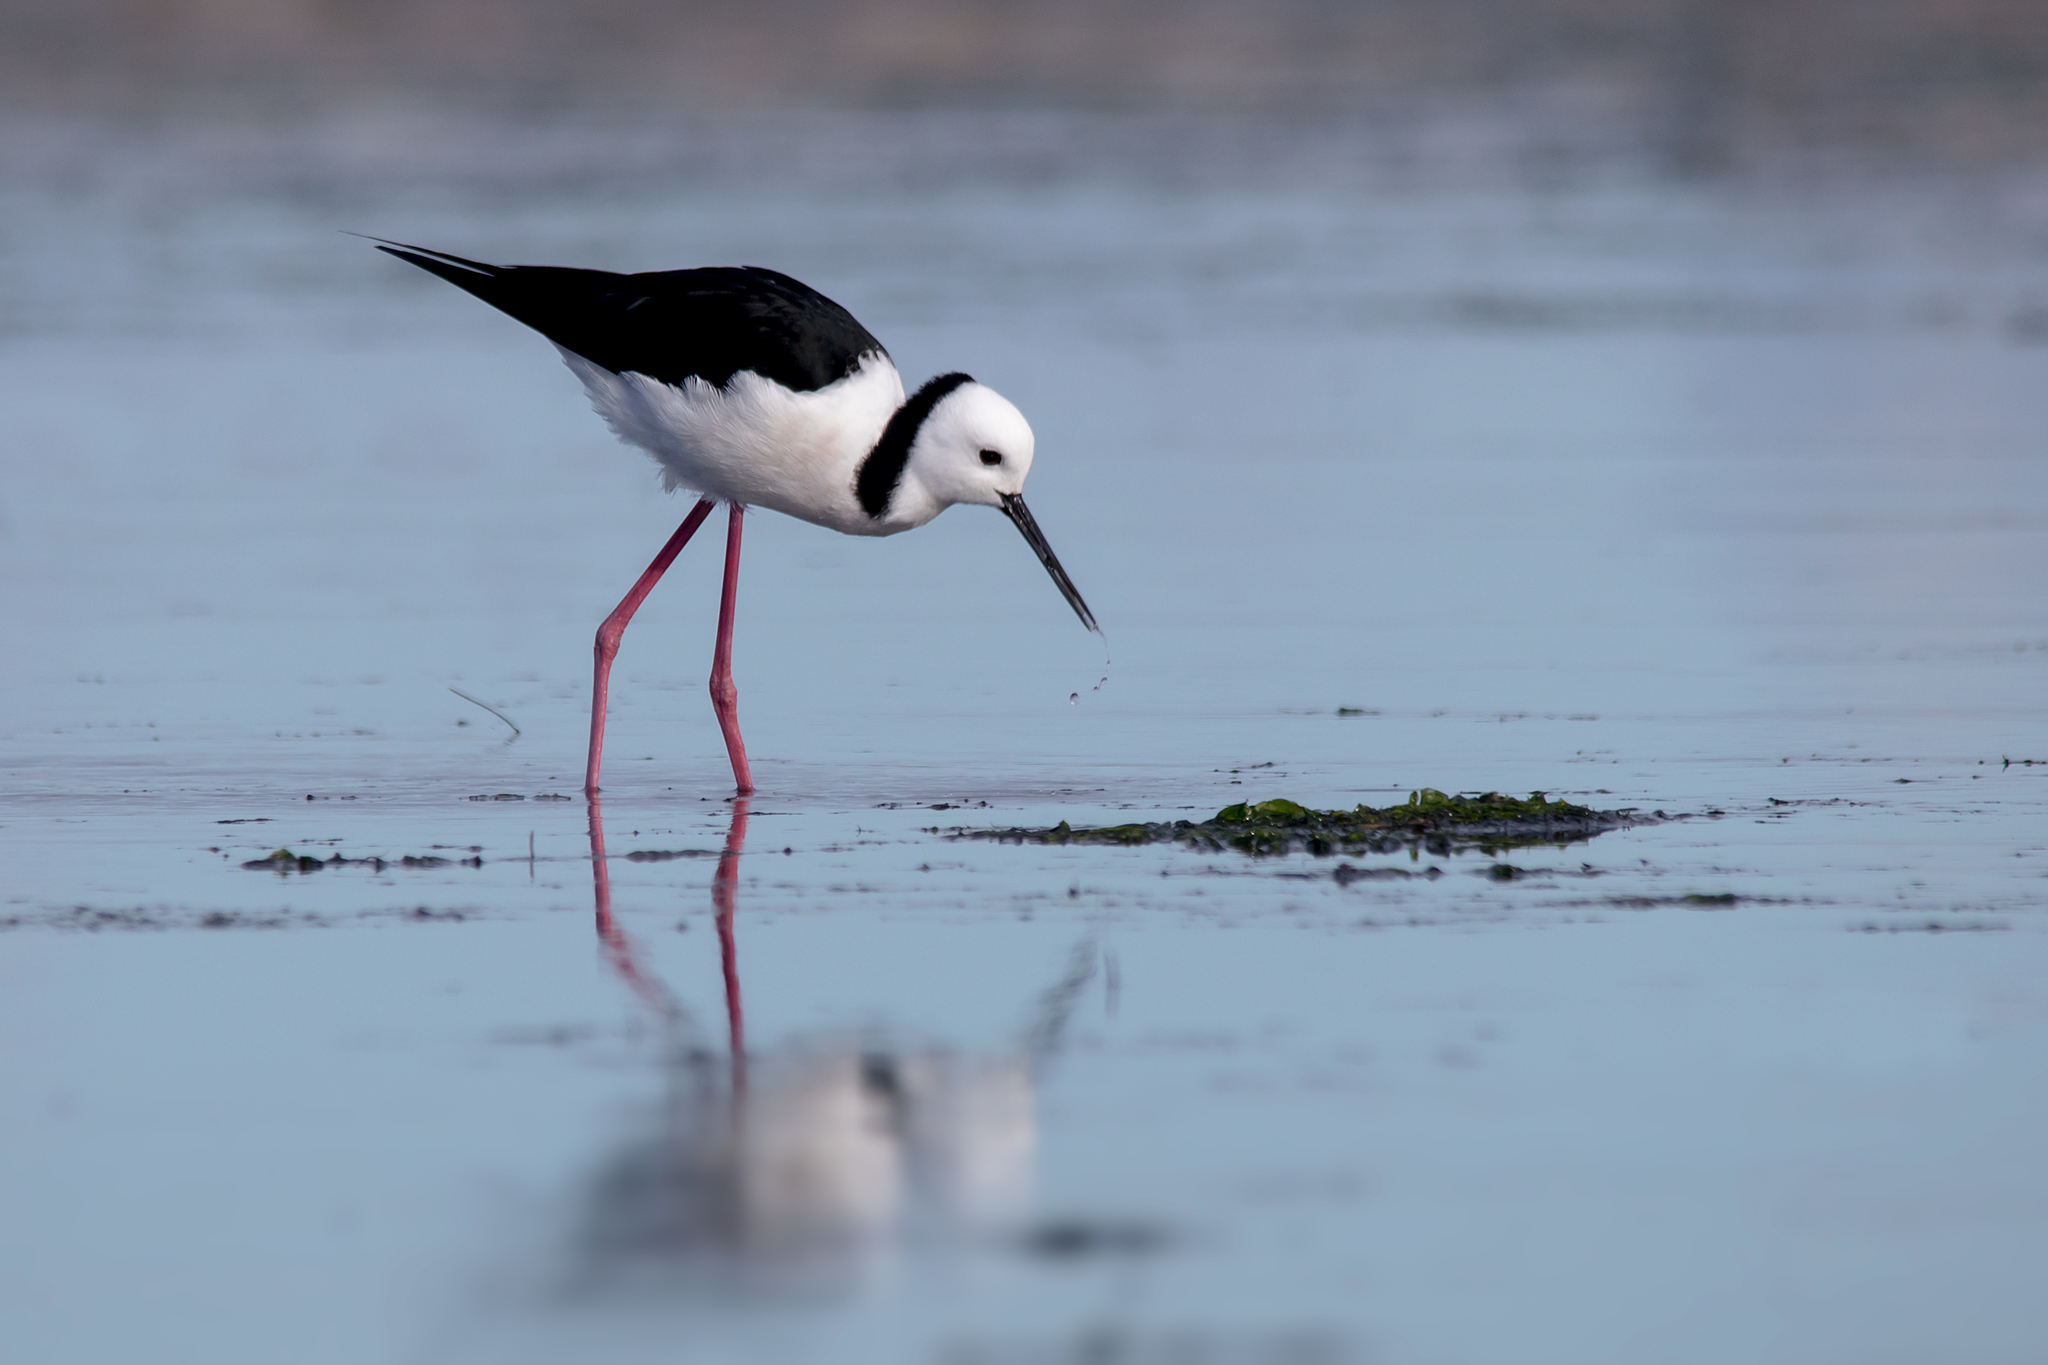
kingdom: Animalia
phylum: Chordata
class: Aves
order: Charadriiformes
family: Recurvirostridae
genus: Himantopus
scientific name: Himantopus leucocephalus
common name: White-headed stilt
